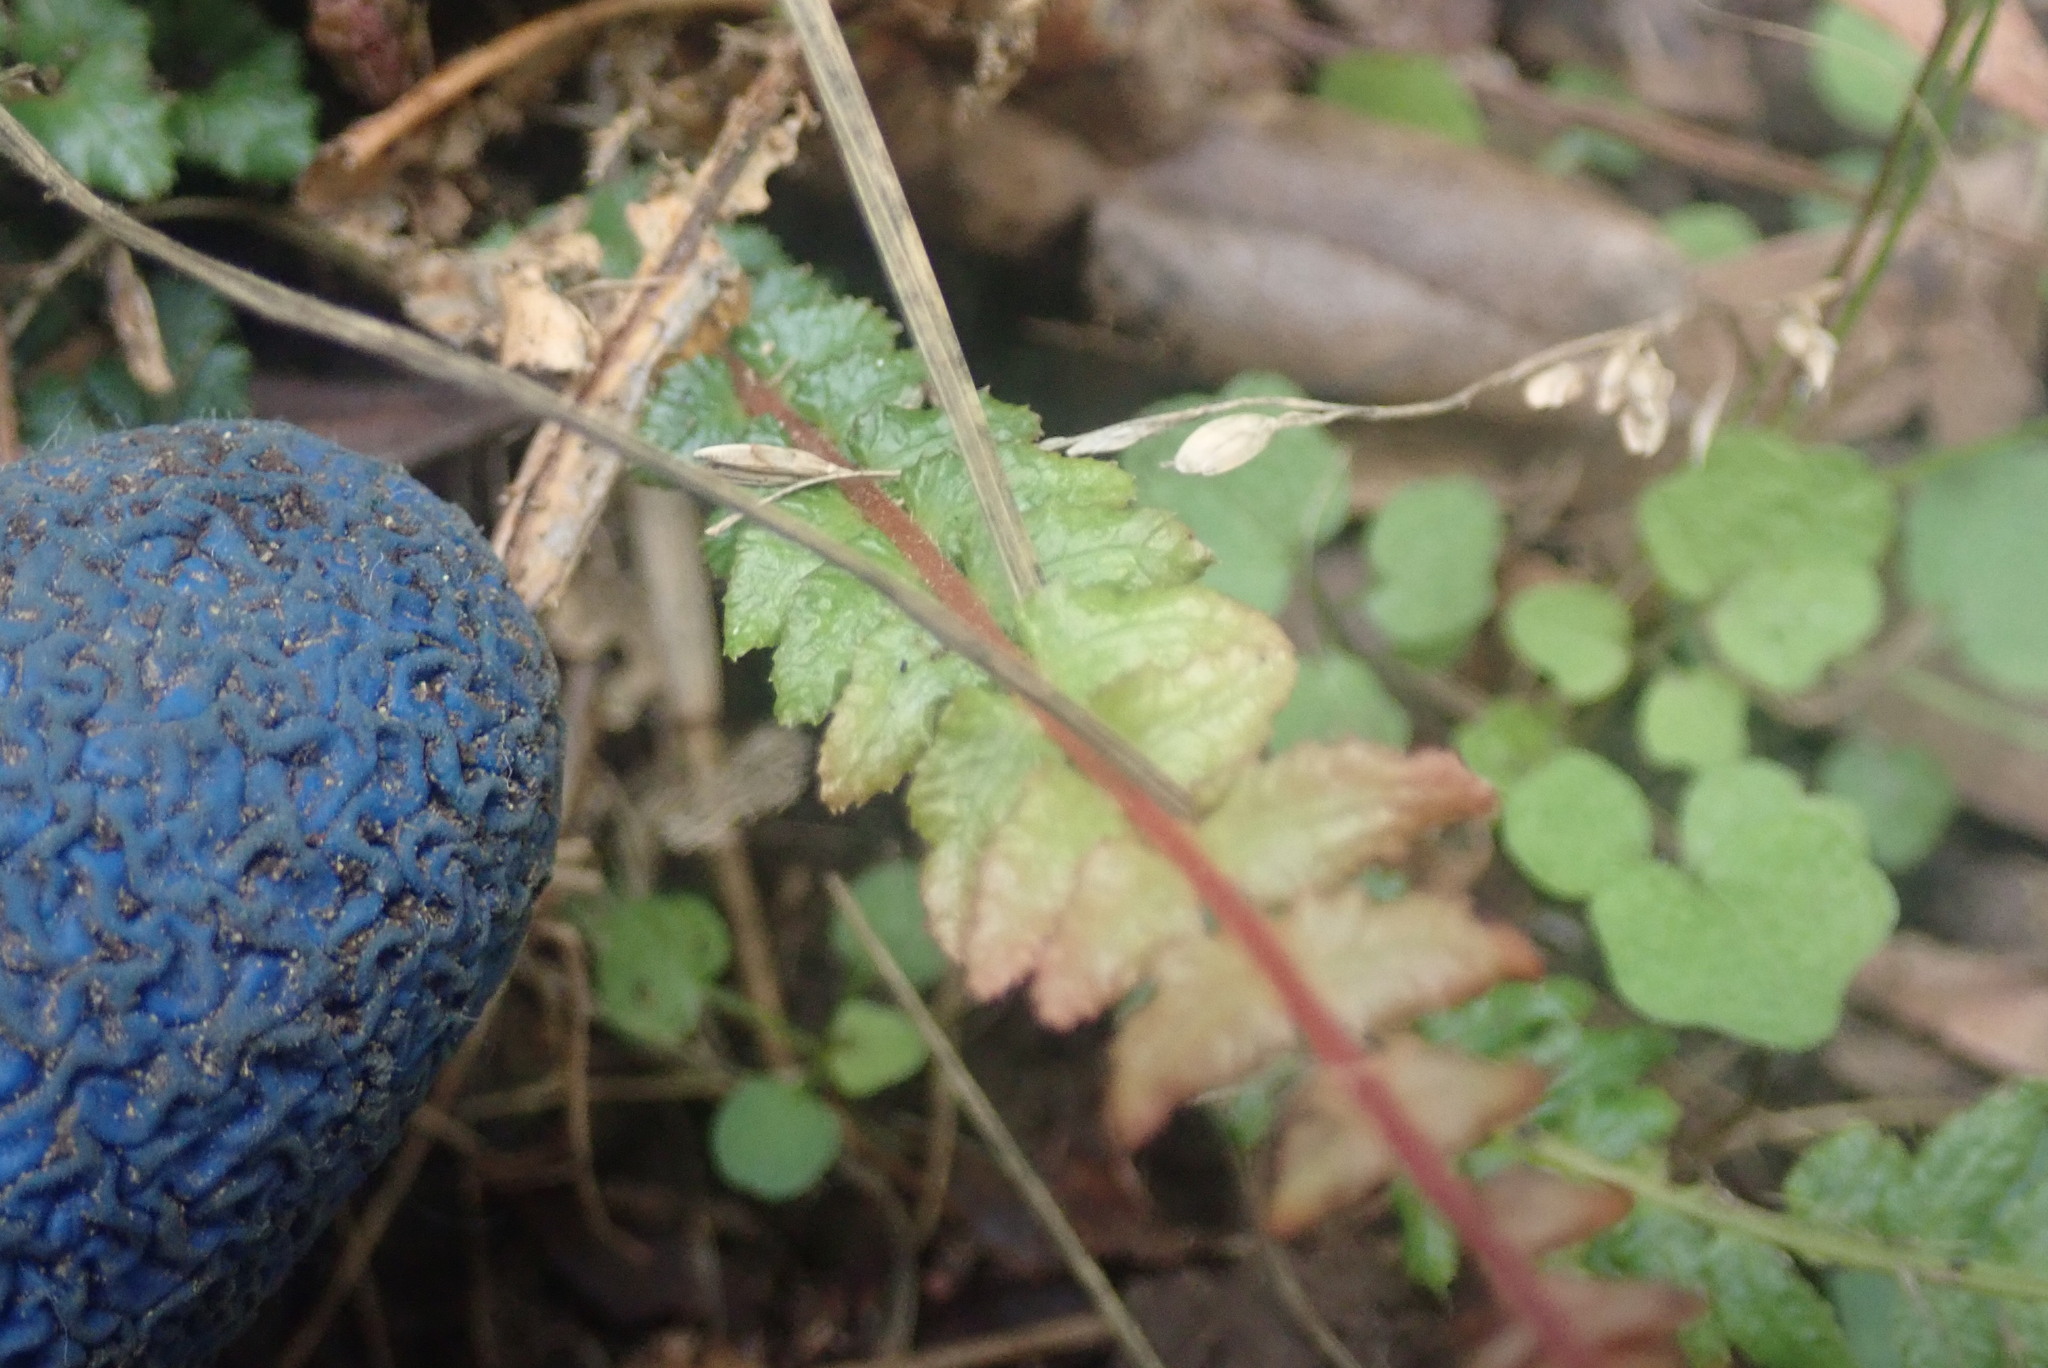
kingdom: Plantae
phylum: Tracheophyta
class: Polypodiopsida
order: Polypodiales
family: Blechnaceae
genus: Doodia
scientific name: Doodia australis
